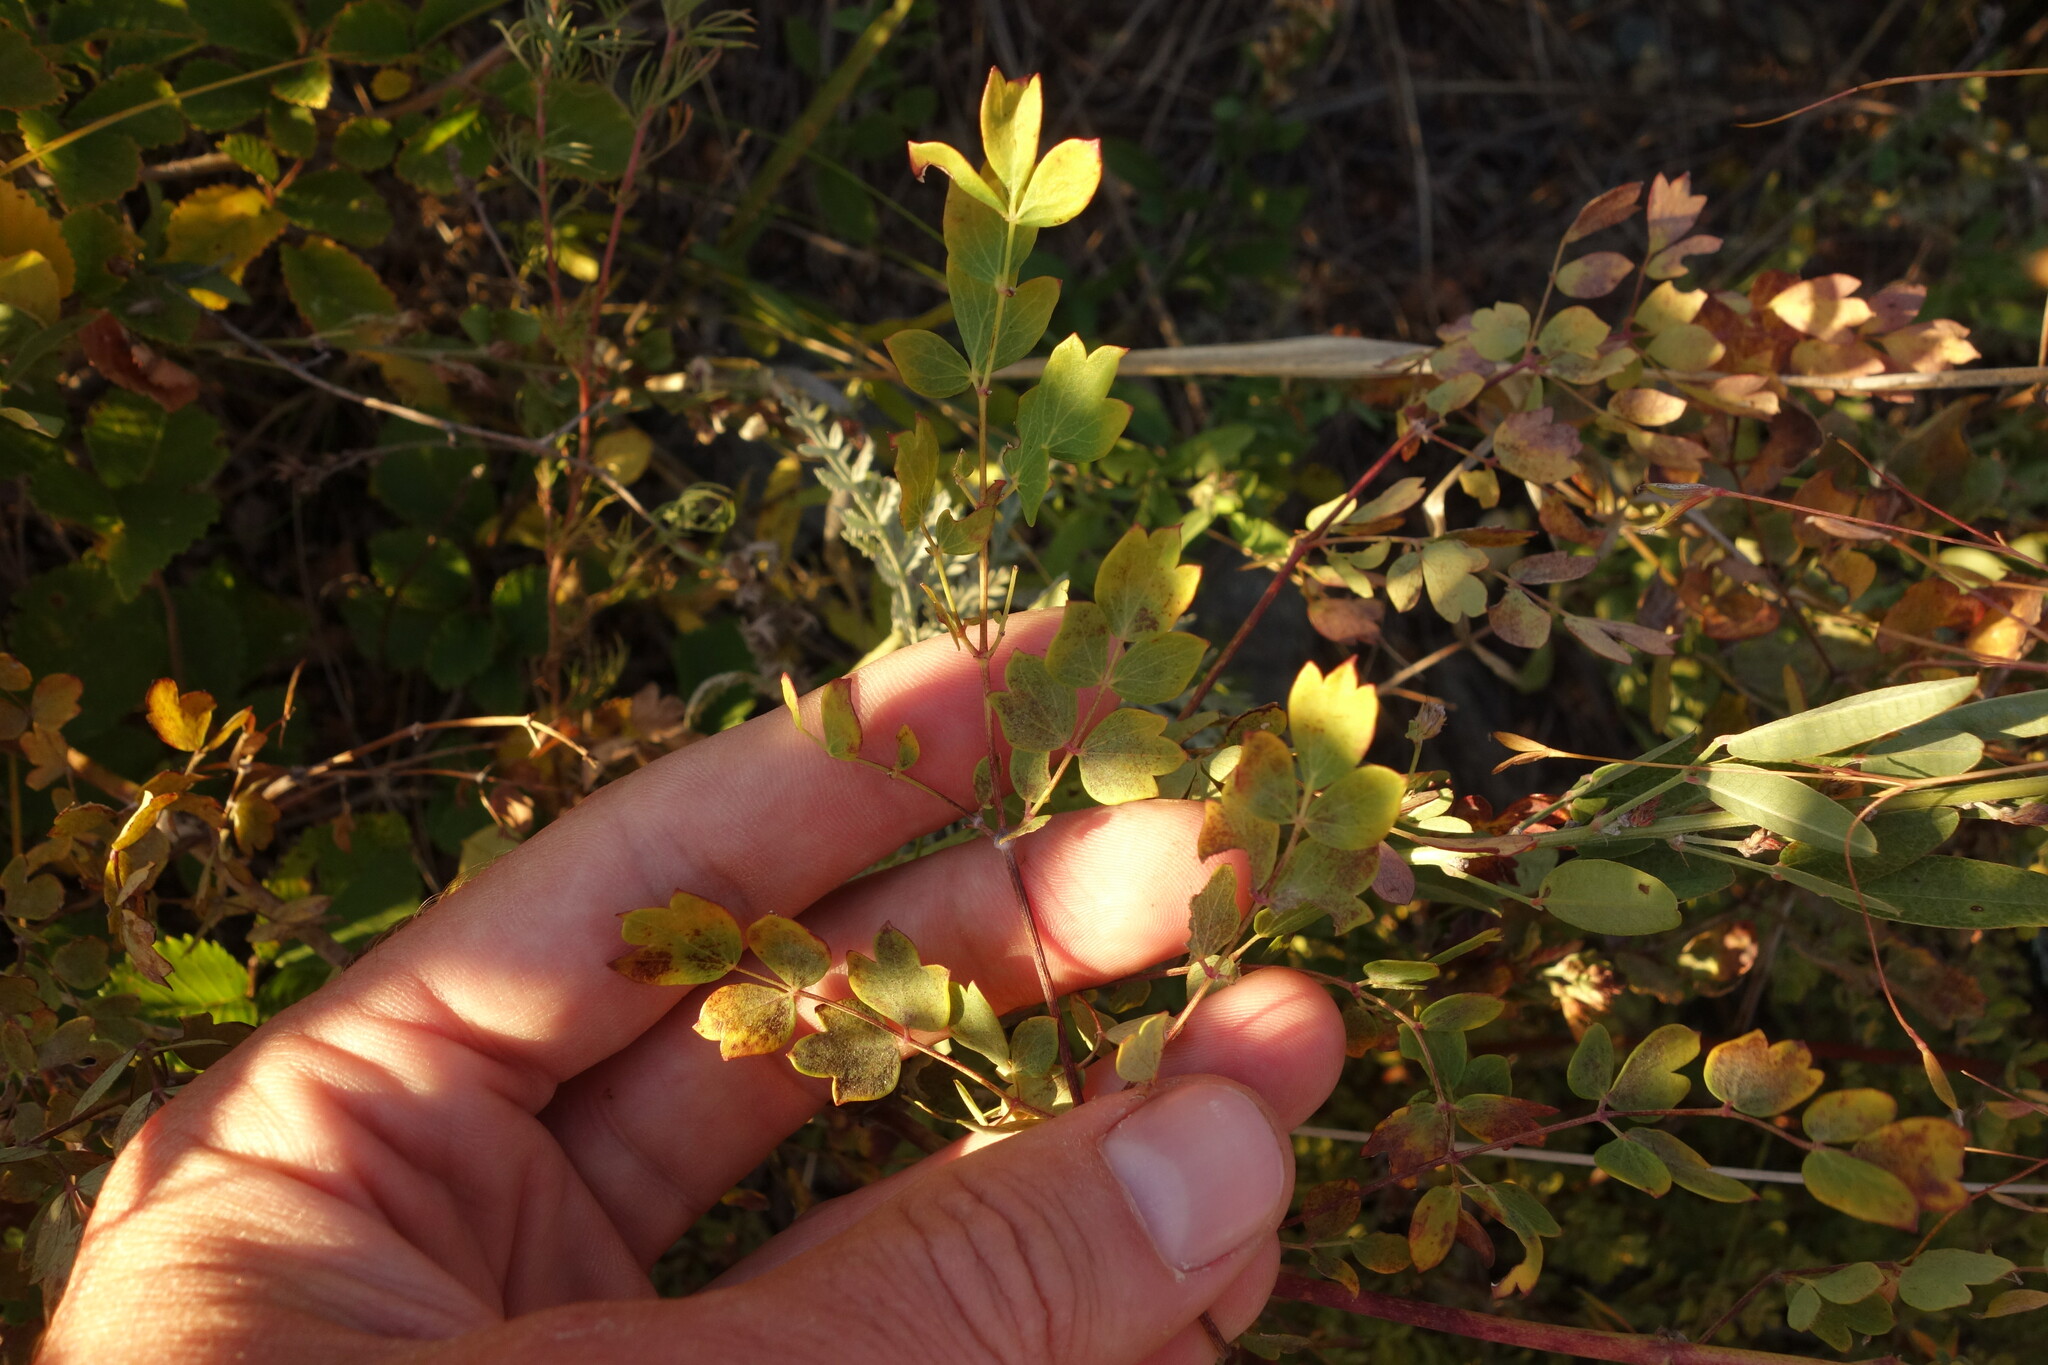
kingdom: Plantae
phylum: Tracheophyta
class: Magnoliopsida
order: Ranunculales
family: Ranunculaceae
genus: Thalictrum
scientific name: Thalictrum squarrosum
